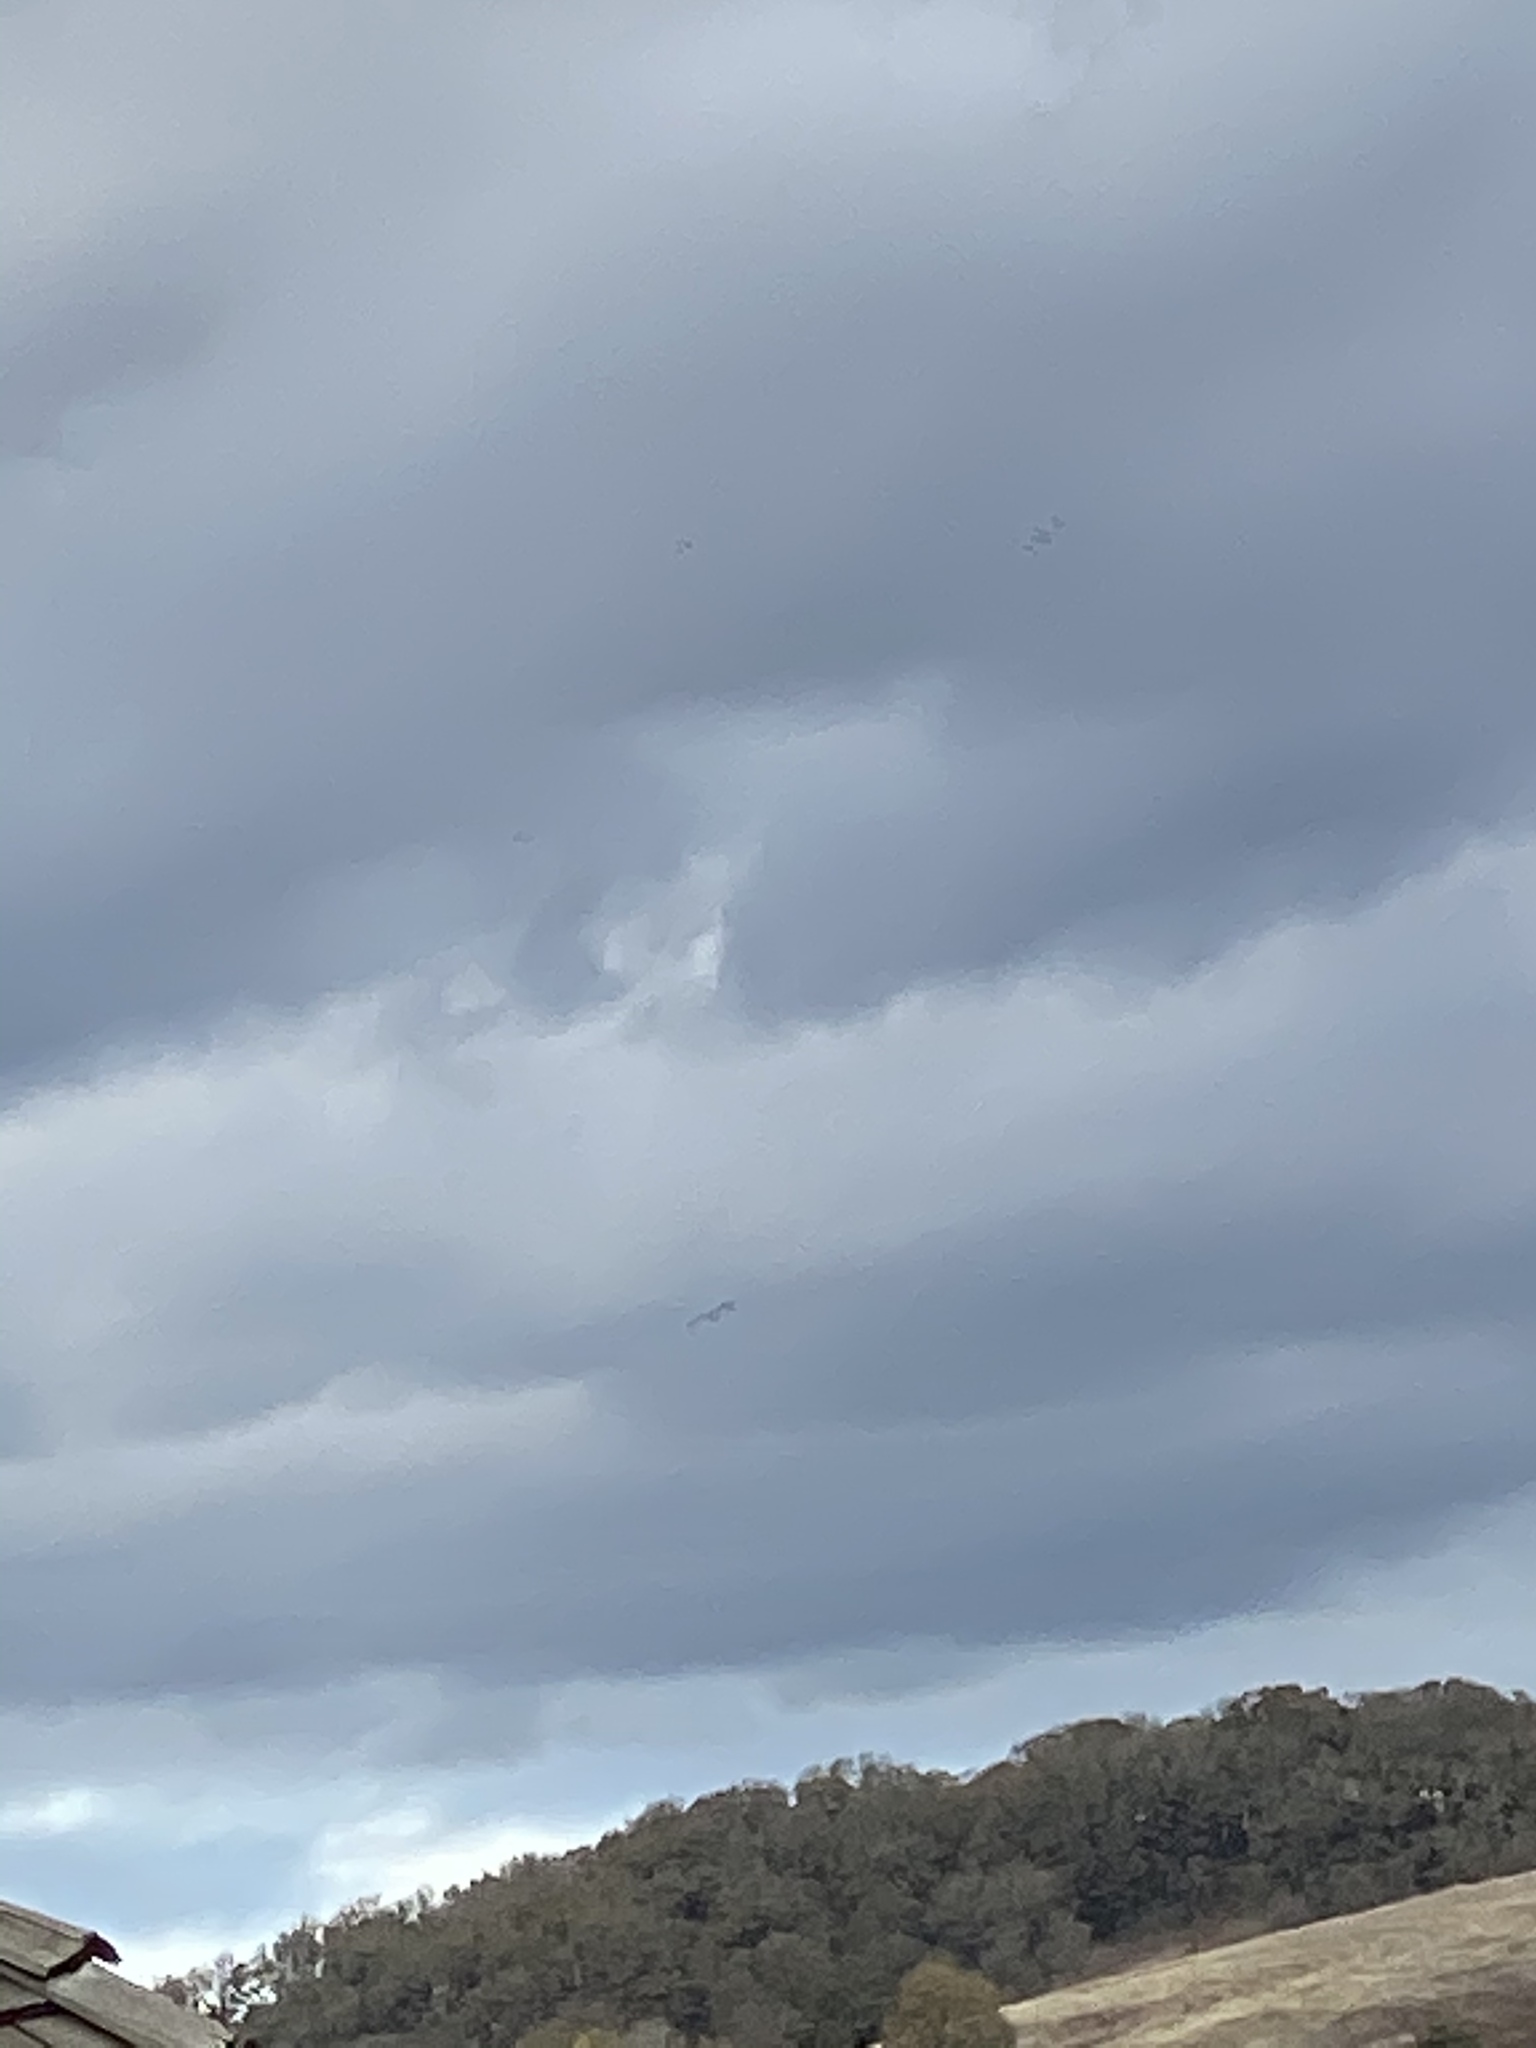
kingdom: Animalia
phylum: Chordata
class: Aves
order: Accipitriformes
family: Accipitridae
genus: Haliaeetus
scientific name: Haliaeetus leucocephalus
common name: Bald eagle
